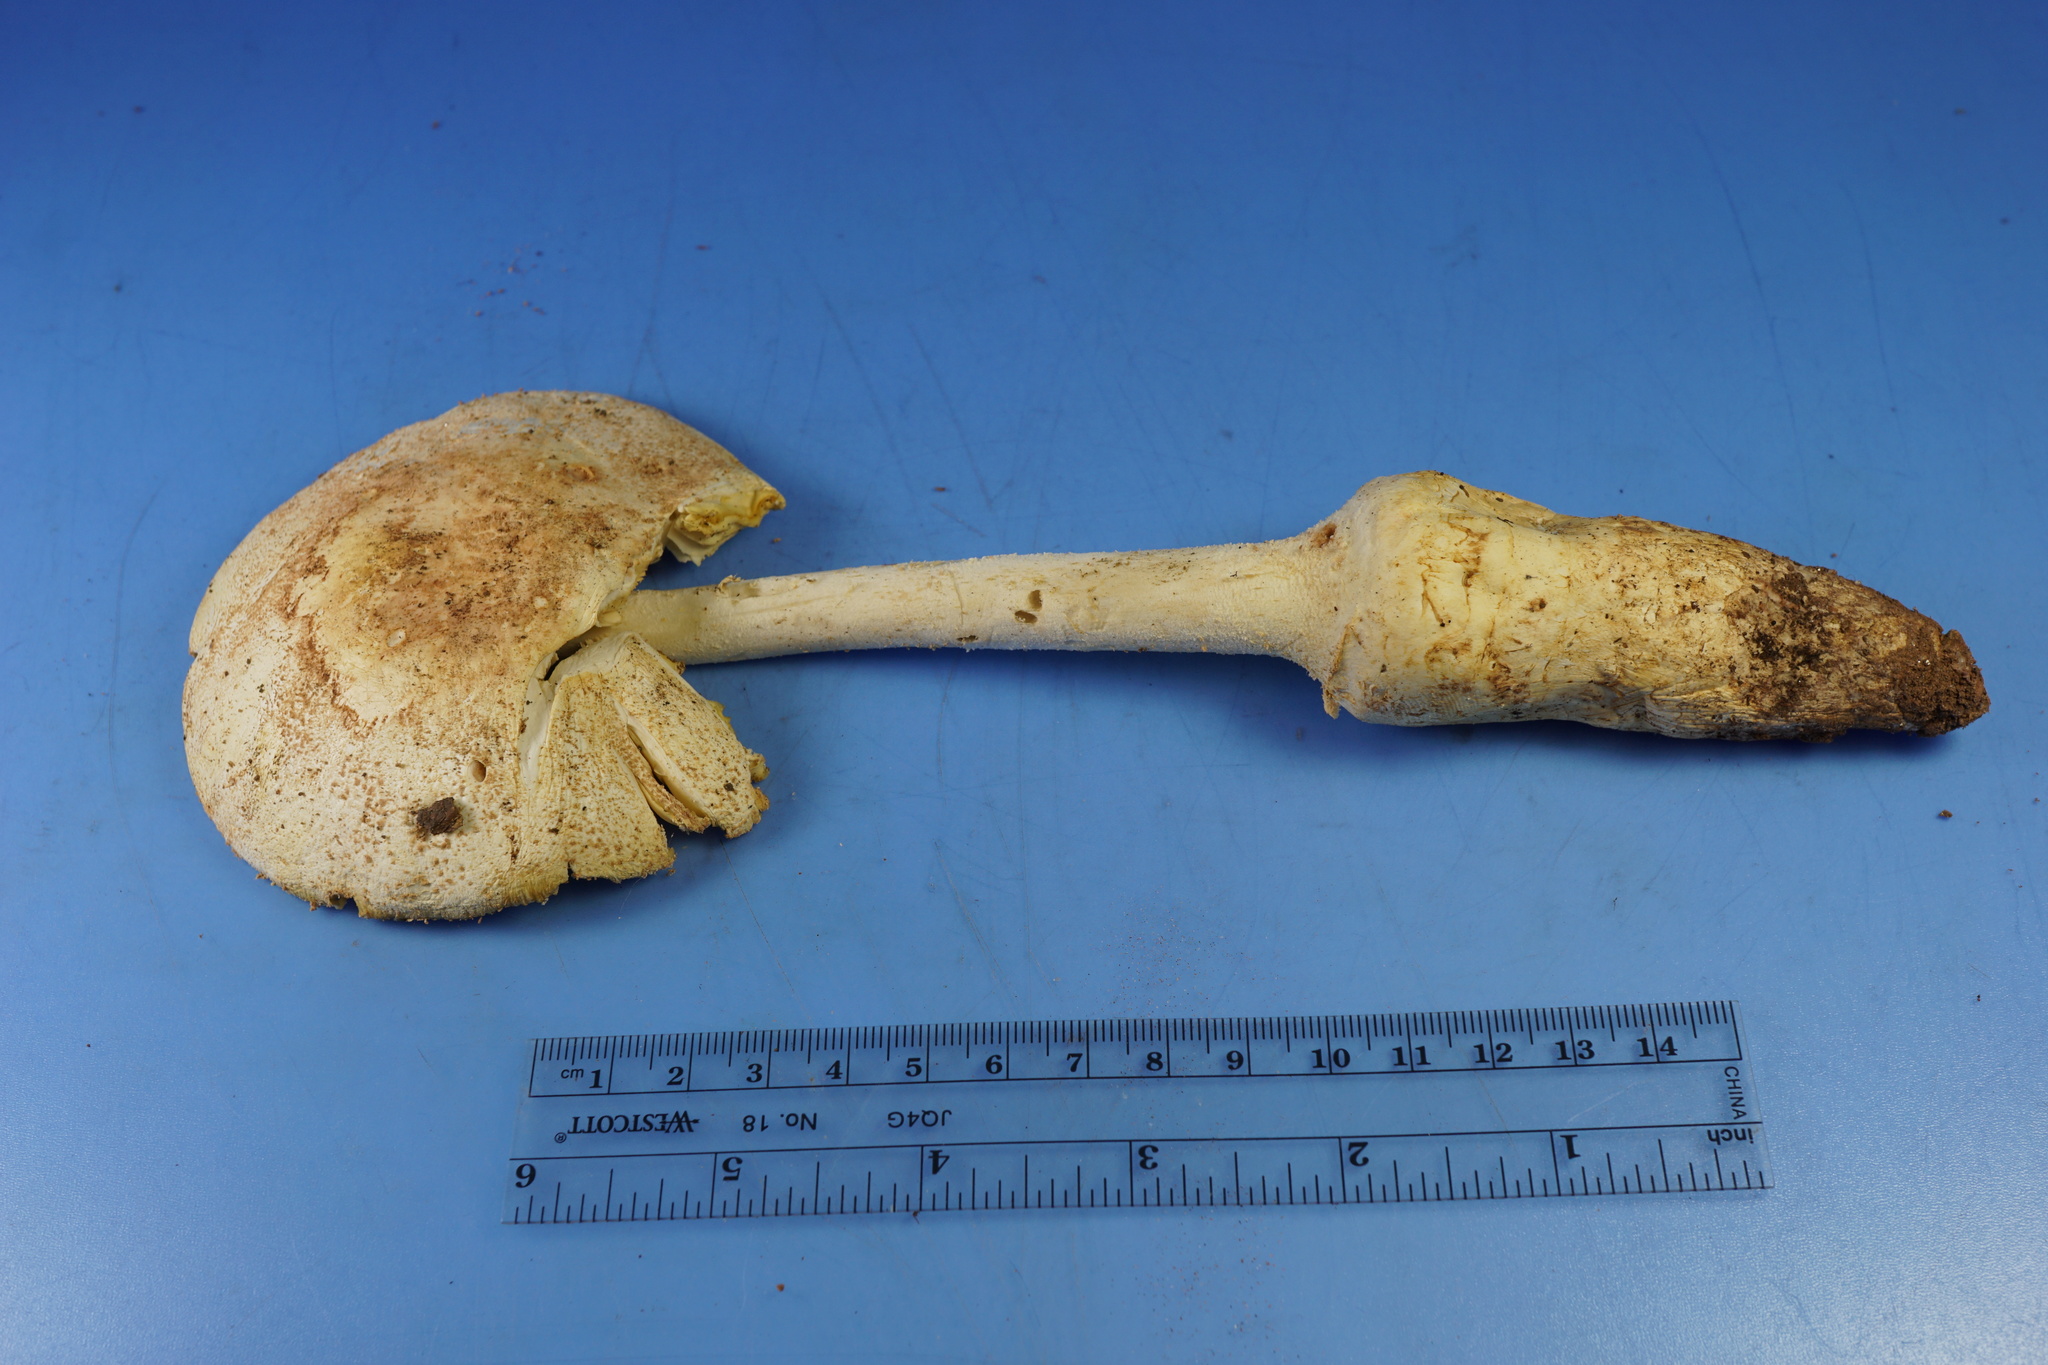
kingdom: Fungi
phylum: Basidiomycota
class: Agaricomycetes
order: Agaricales
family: Amanitaceae
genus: Amanita
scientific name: Amanita daucipes
